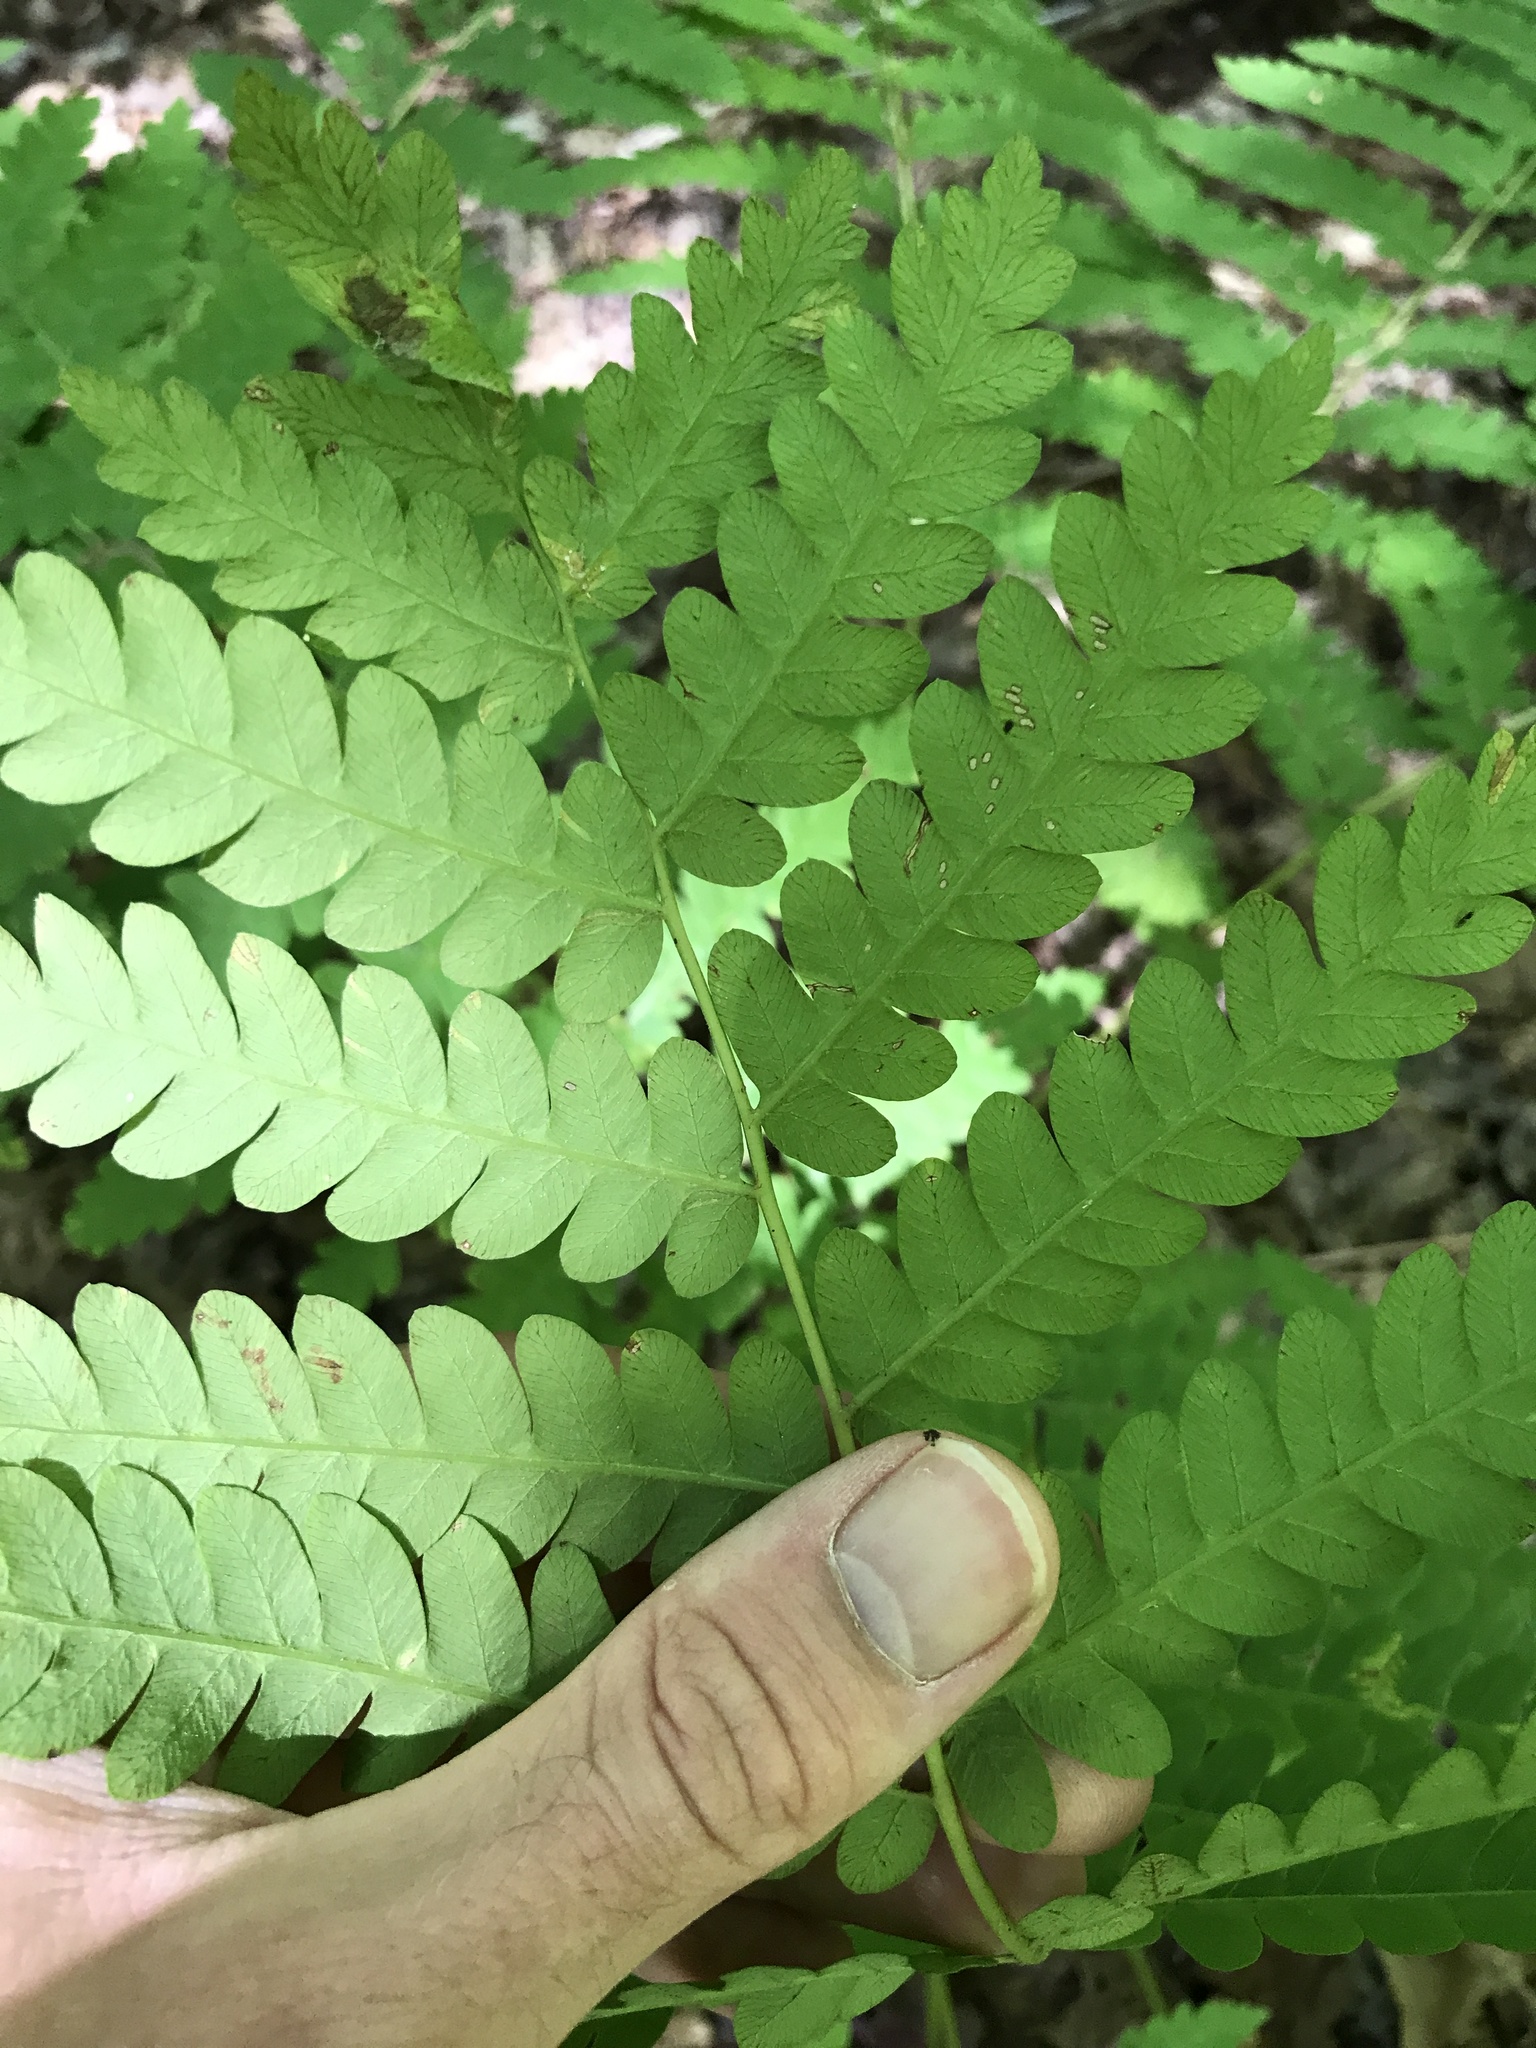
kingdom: Plantae
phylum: Tracheophyta
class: Polypodiopsida
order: Osmundales
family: Osmundaceae
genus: Claytosmunda
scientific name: Claytosmunda claytoniana
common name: Clayton's fern
